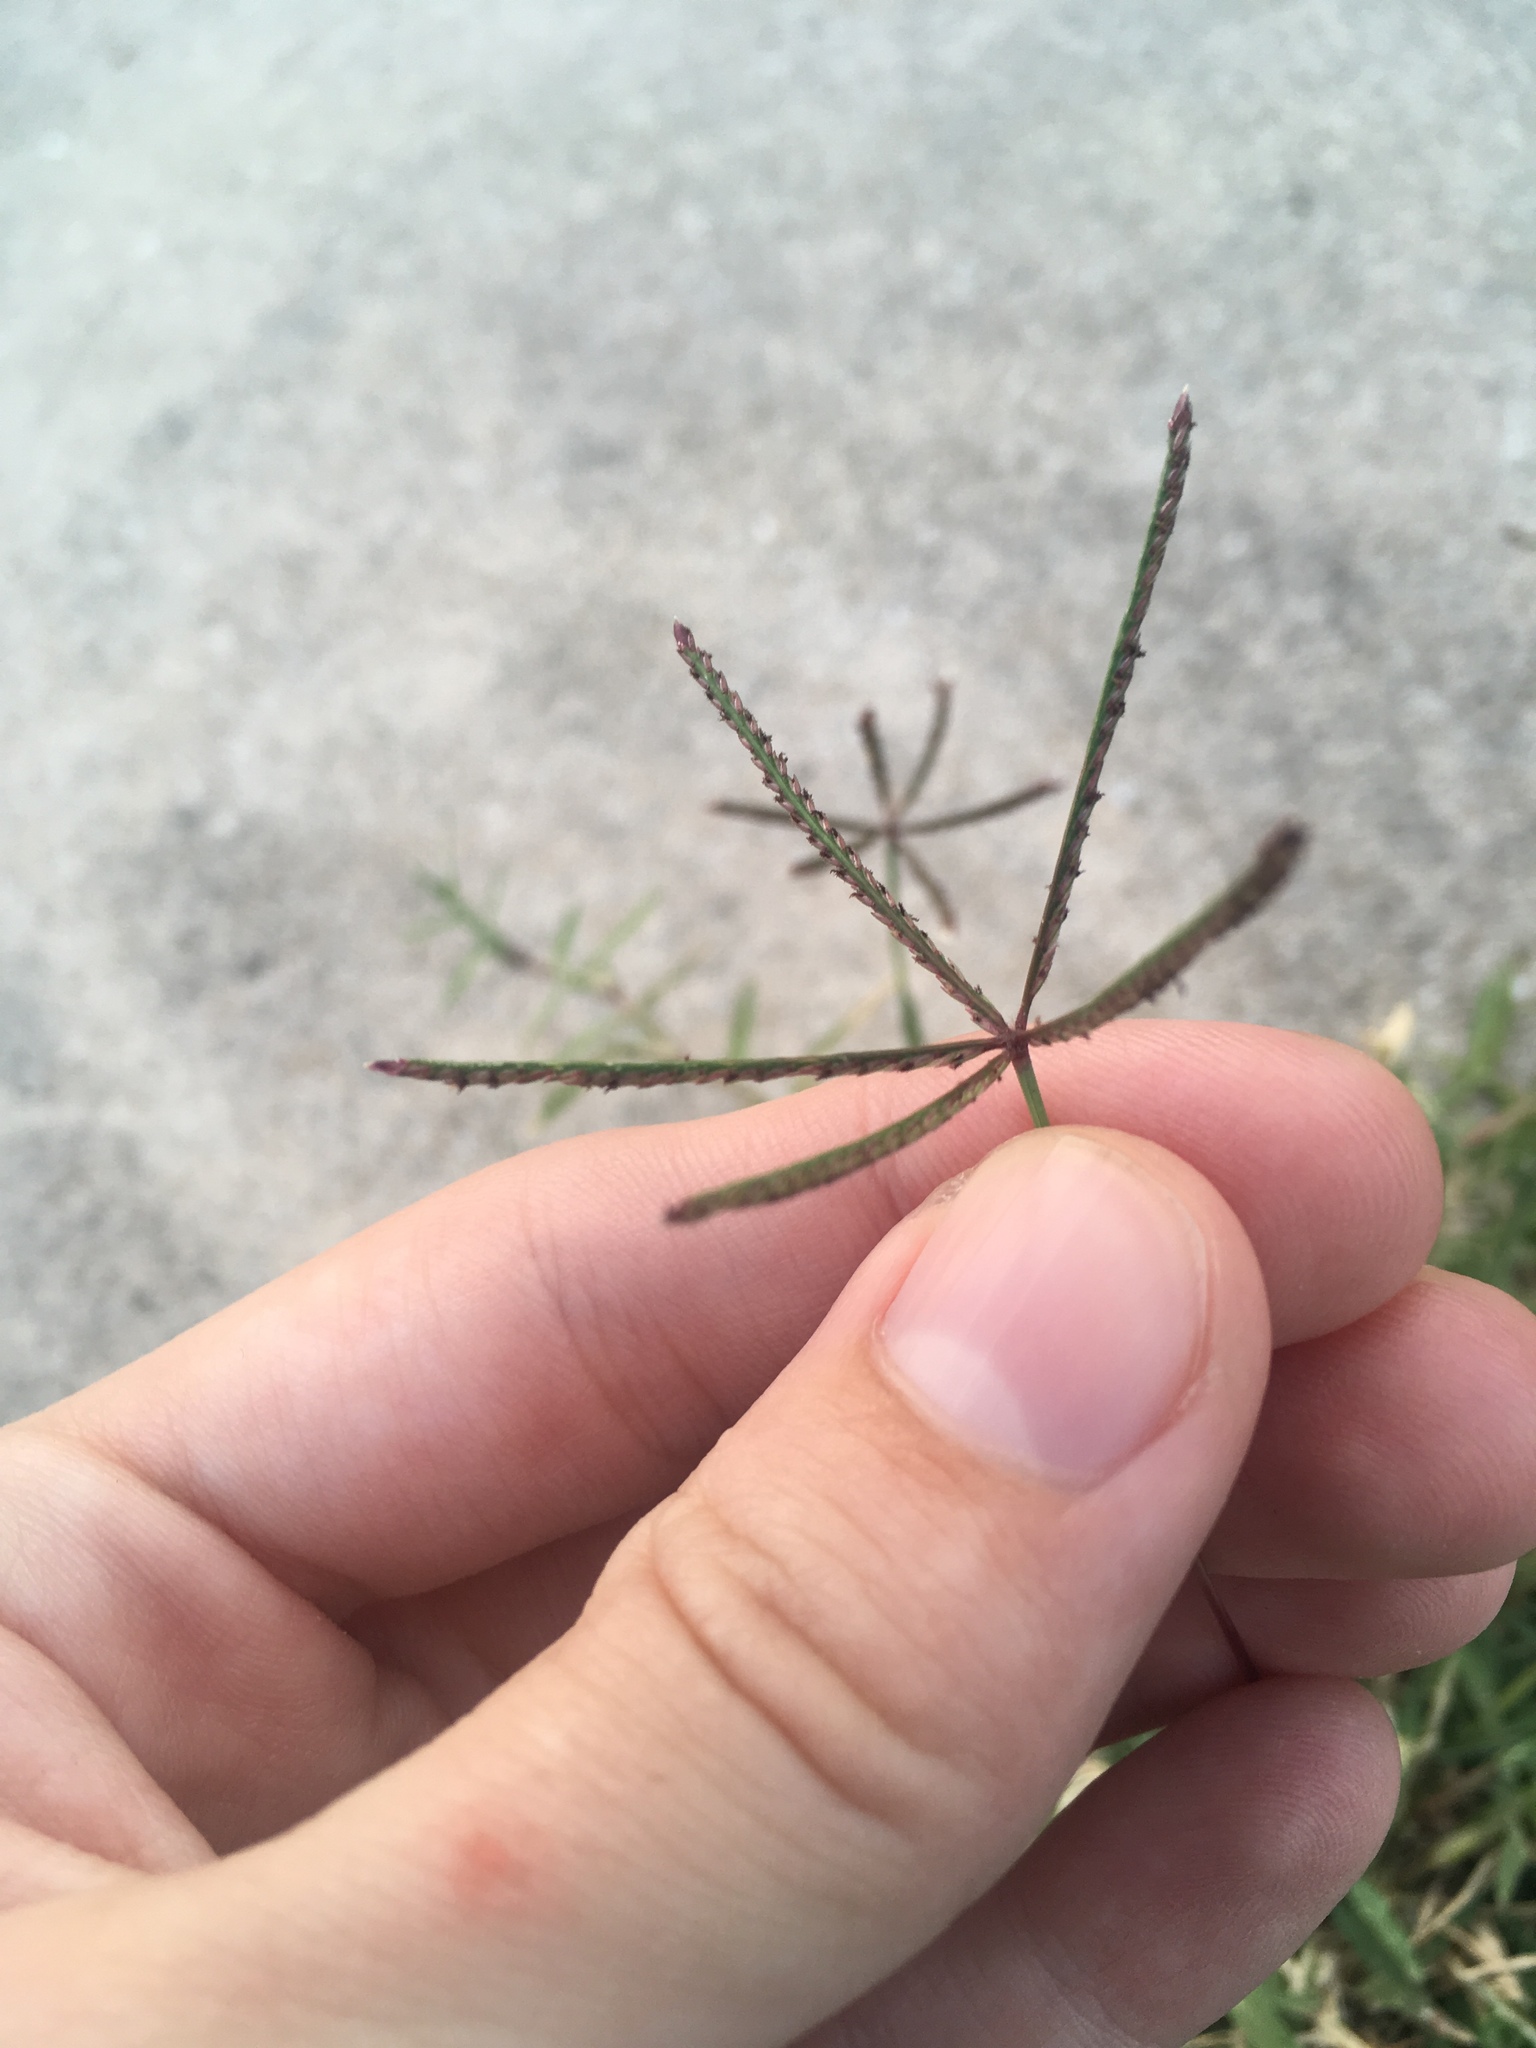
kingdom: Plantae
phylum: Tracheophyta
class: Liliopsida
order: Poales
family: Poaceae
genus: Cynodon
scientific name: Cynodon dactylon
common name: Bermuda grass
